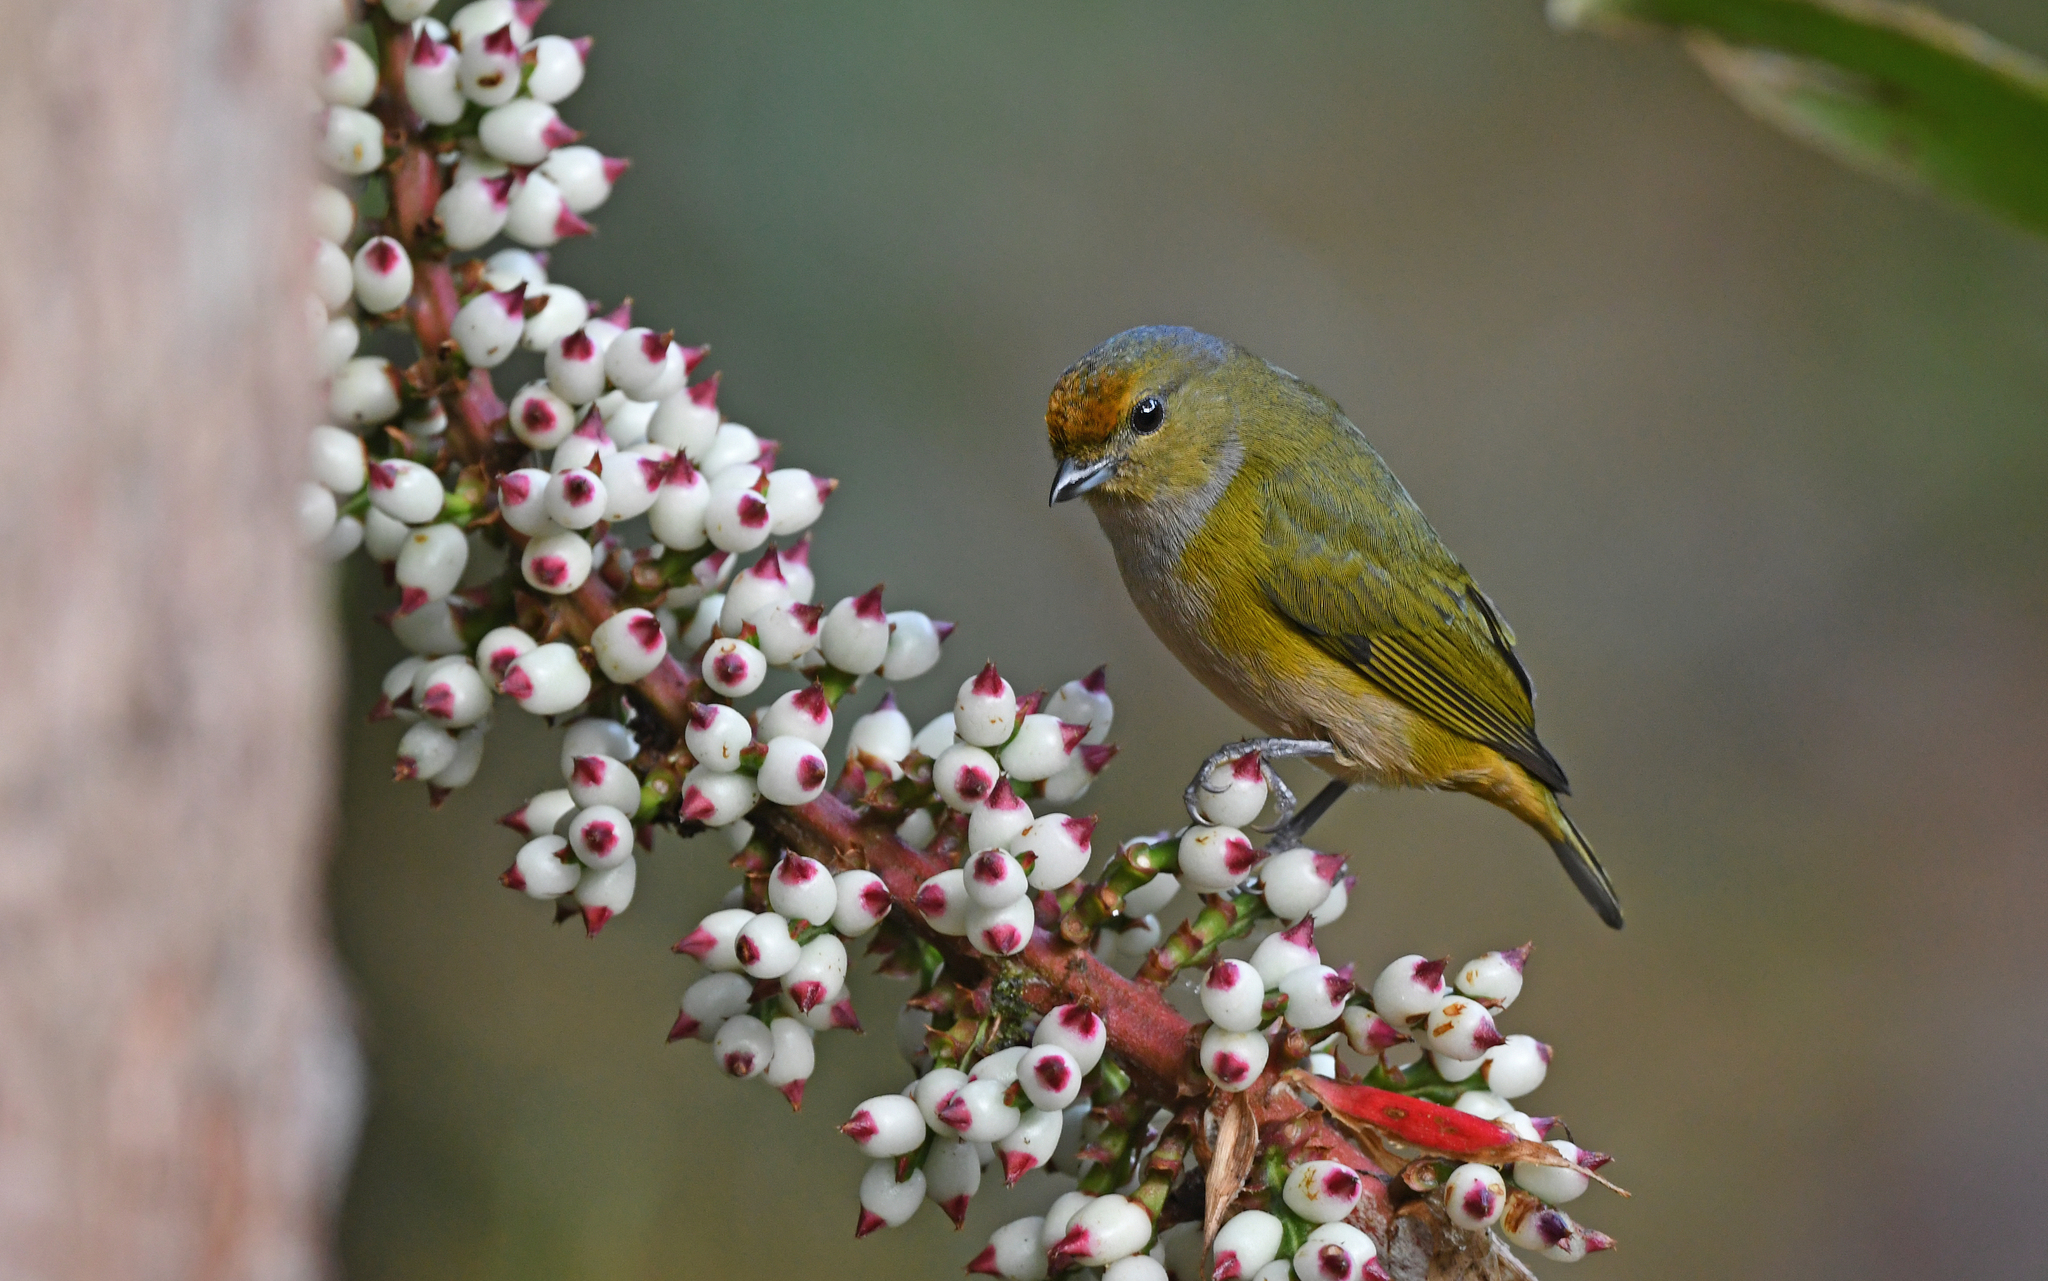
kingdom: Animalia
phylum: Chordata
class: Aves
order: Passeriformes
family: Fringillidae
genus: Euphonia
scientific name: Euphonia xanthogaster
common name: Orange-bellied euphonia
